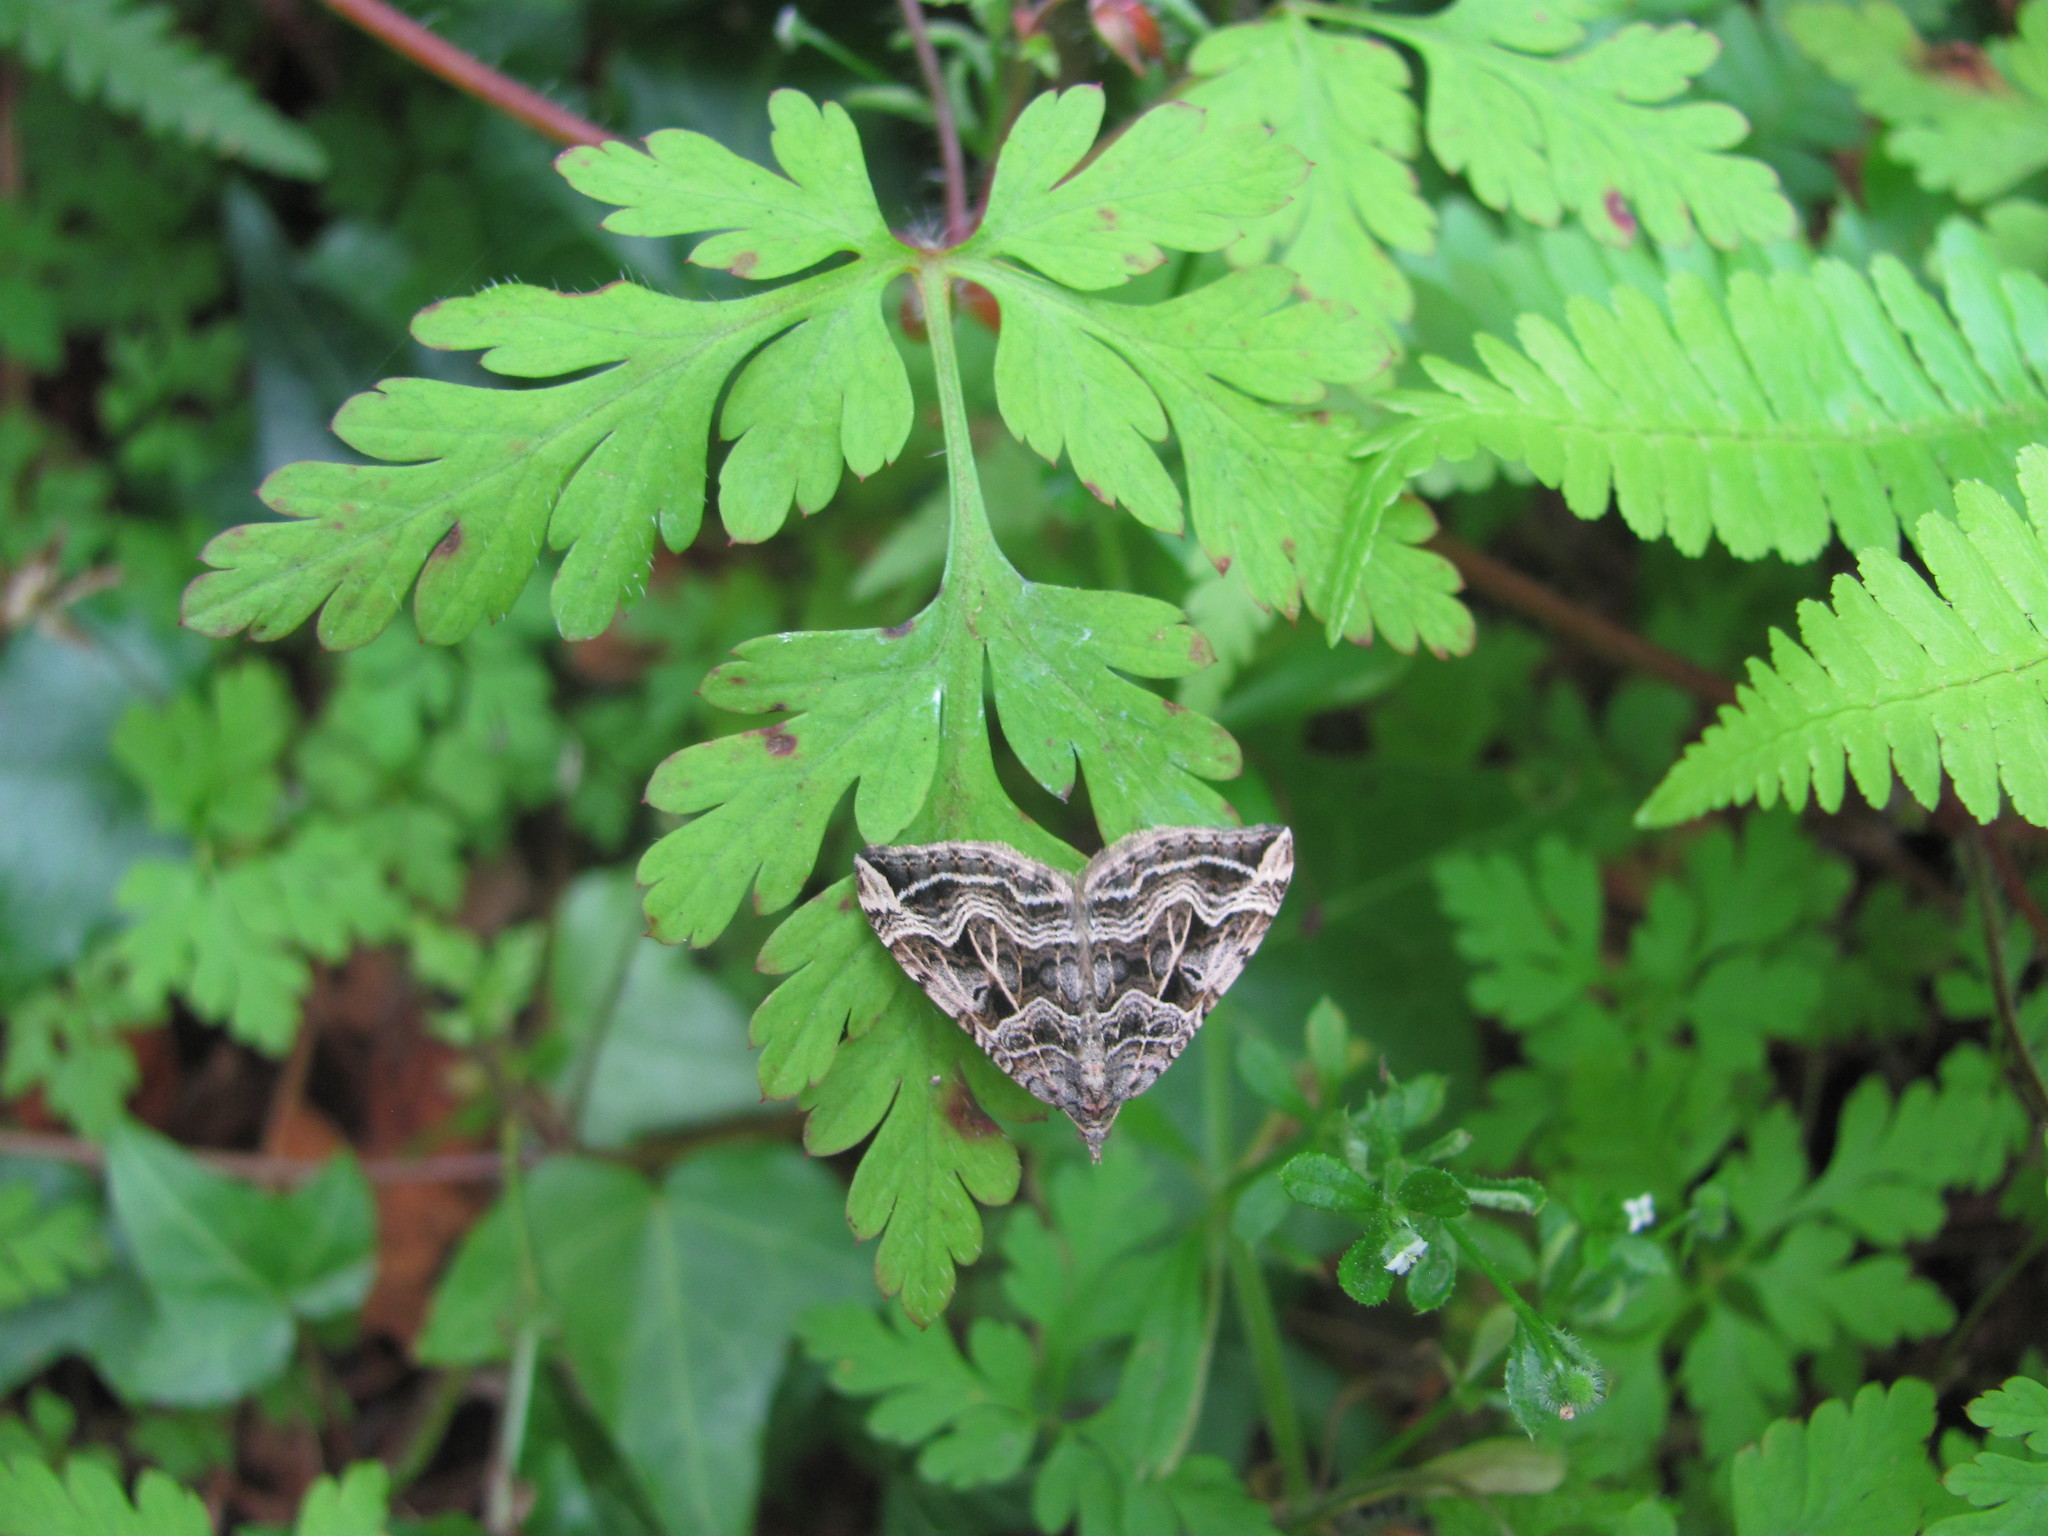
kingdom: Animalia
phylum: Arthropoda
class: Insecta
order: Lepidoptera
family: Geometridae
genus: Xanthorhoe
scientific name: Xanthorhoe semifissata
